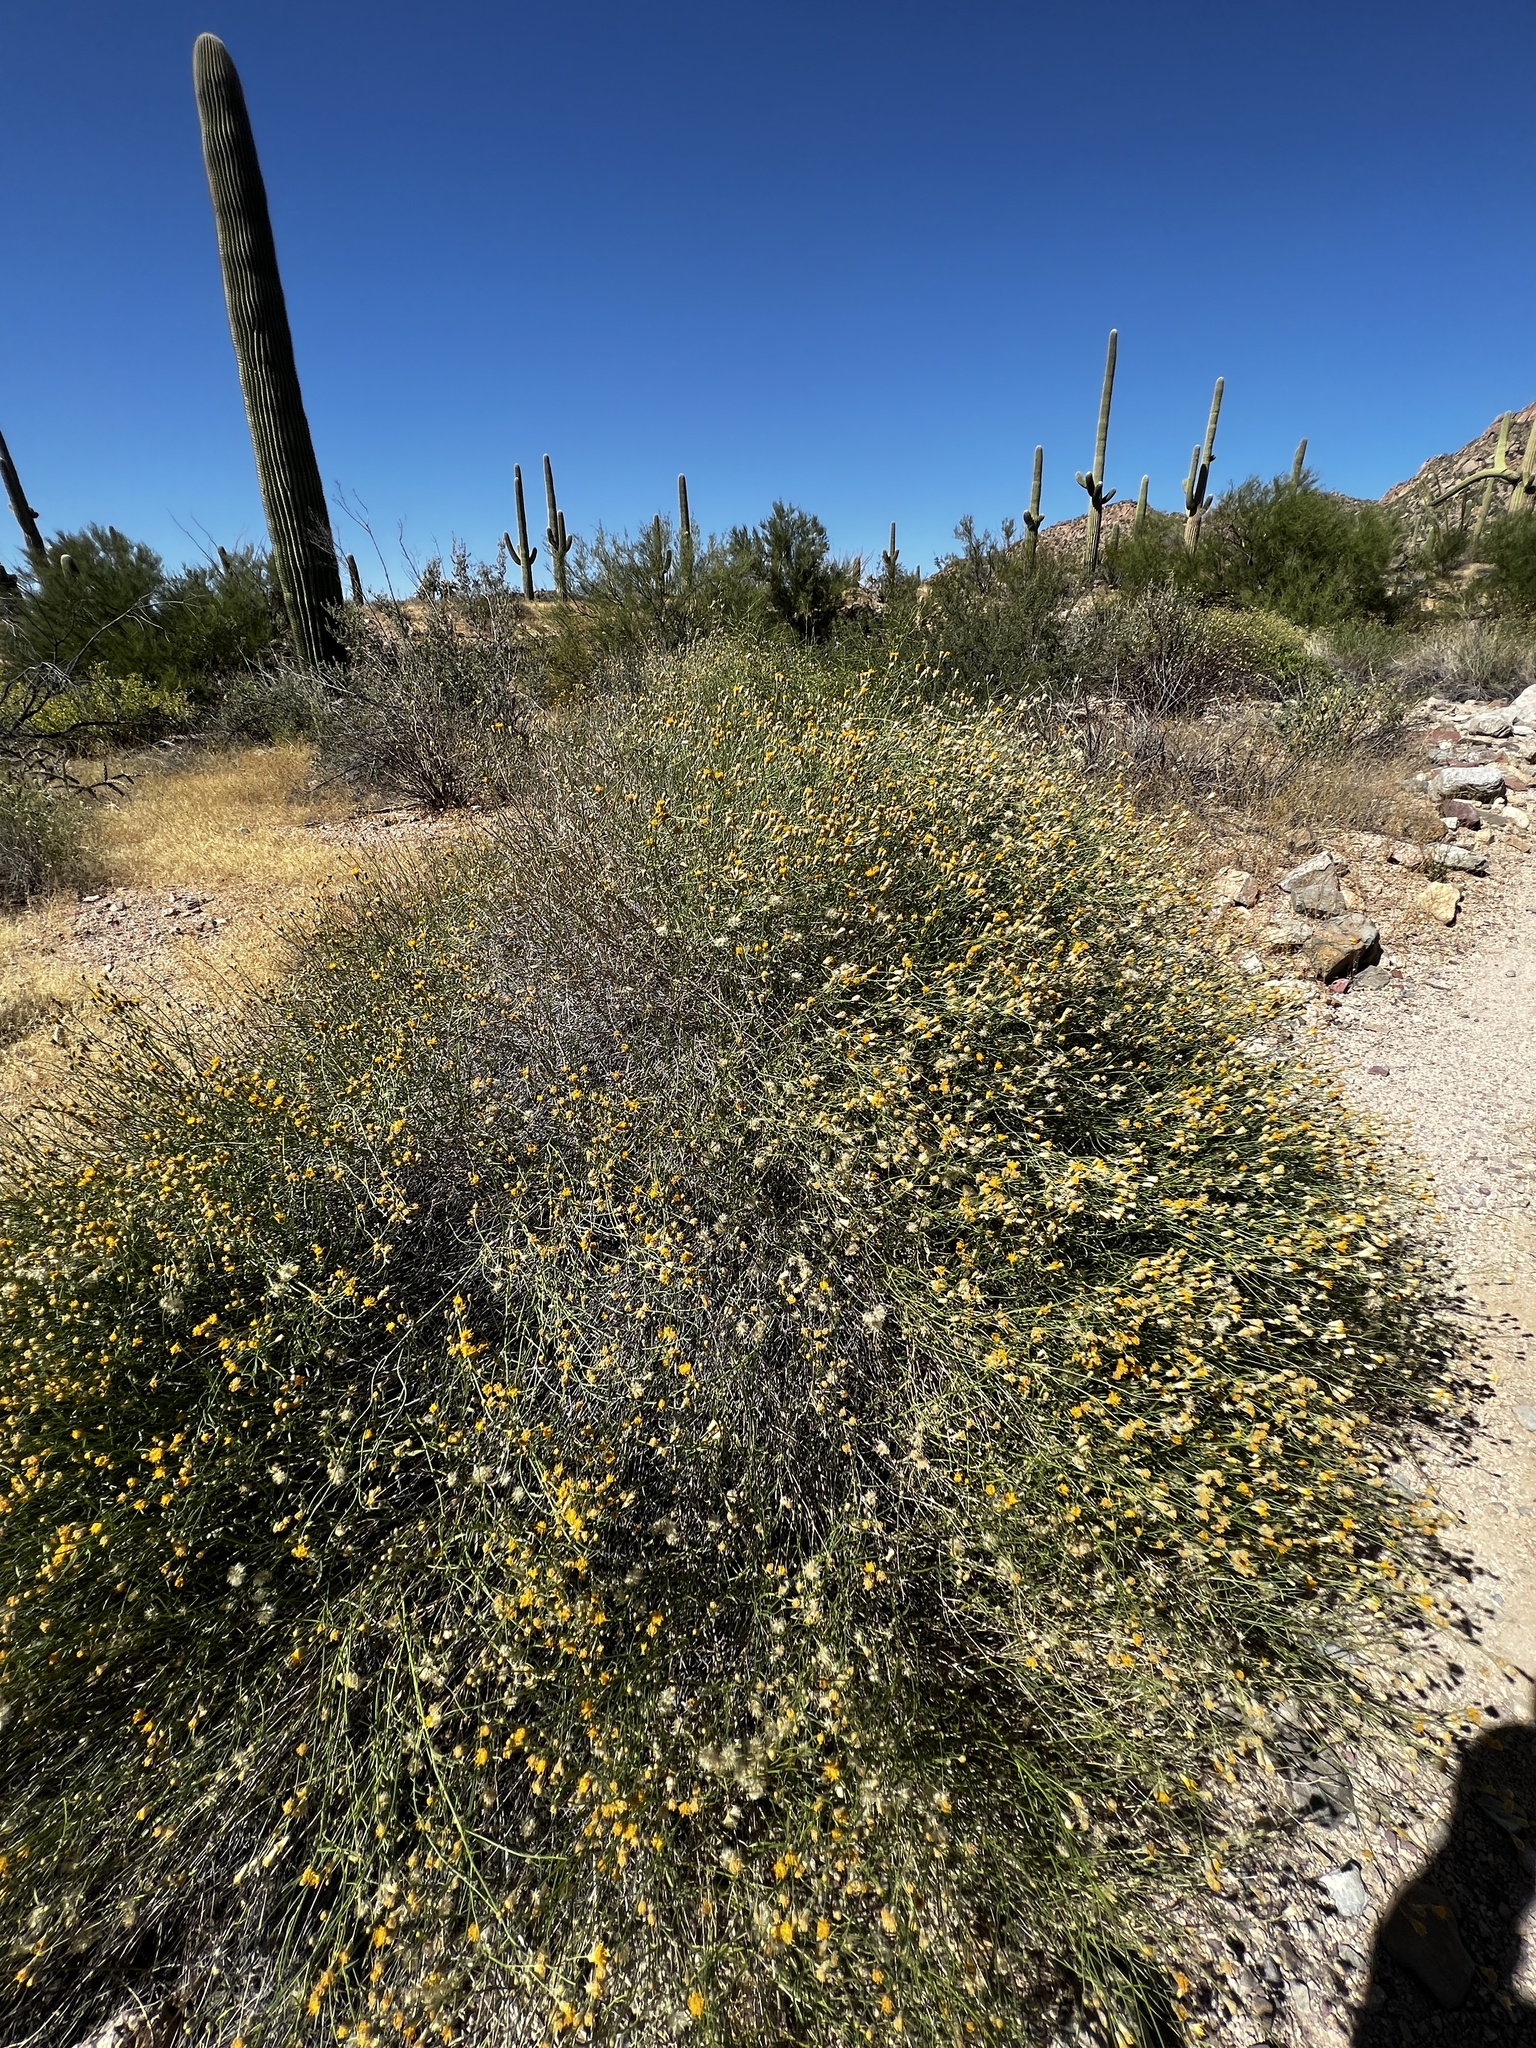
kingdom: Plantae
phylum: Tracheophyta
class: Magnoliopsida
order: Asterales
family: Asteraceae
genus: Bebbia
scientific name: Bebbia juncea
